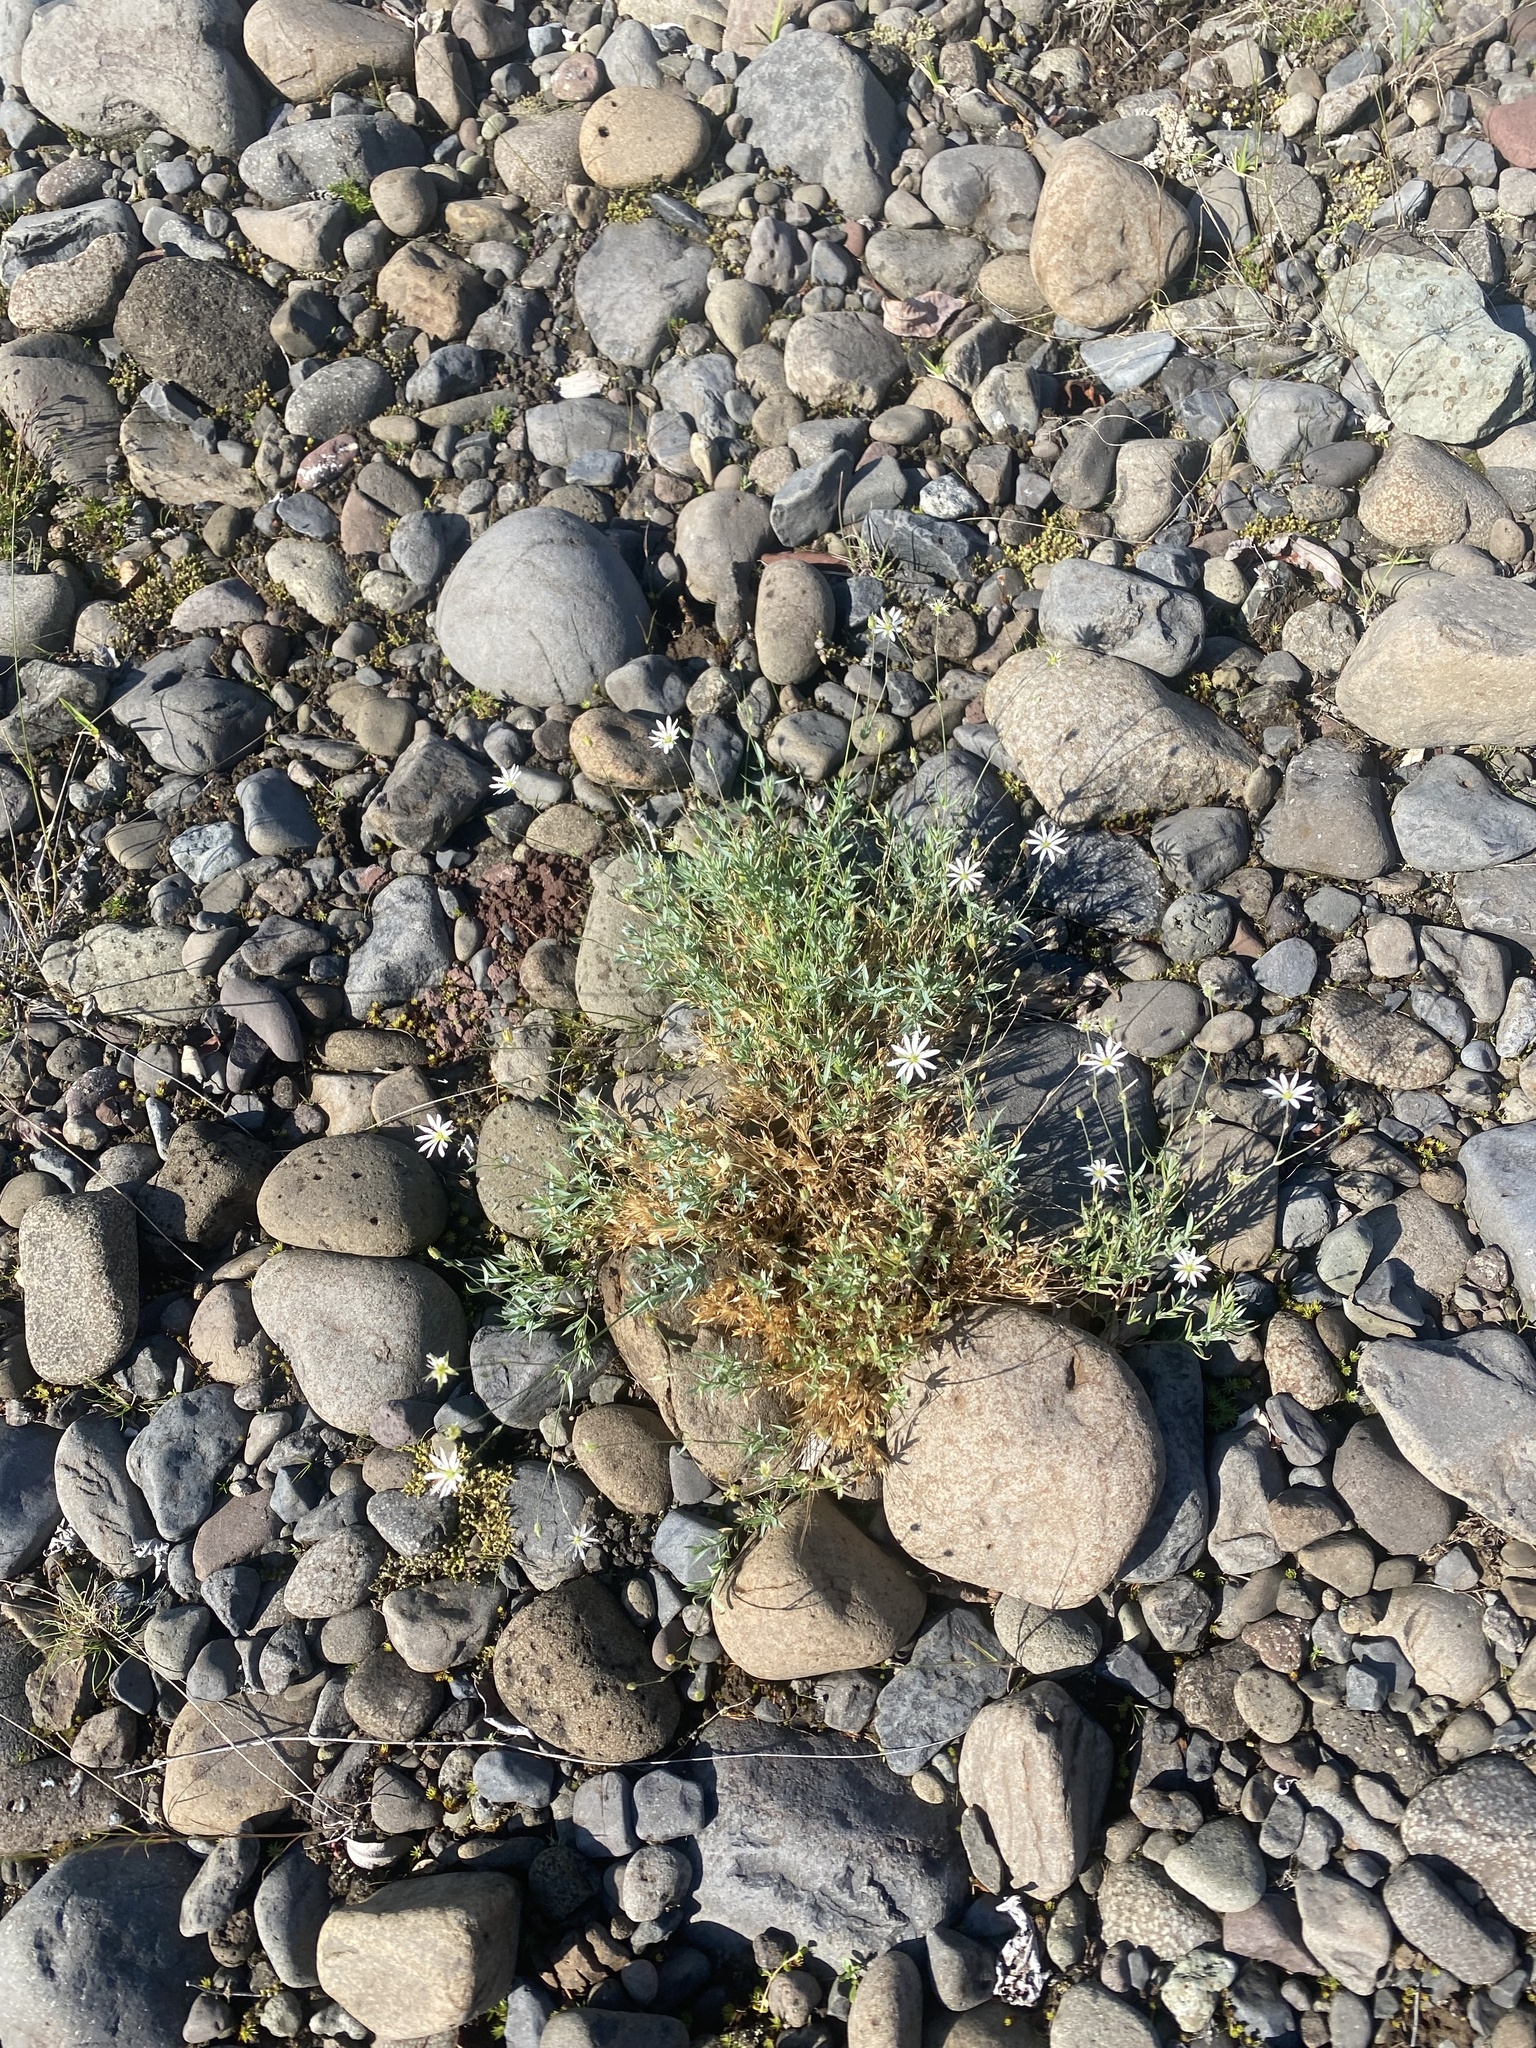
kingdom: Plantae
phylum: Tracheophyta
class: Magnoliopsida
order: Caryophyllales
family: Caryophyllaceae
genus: Stellaria
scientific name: Stellaria fischeriana
